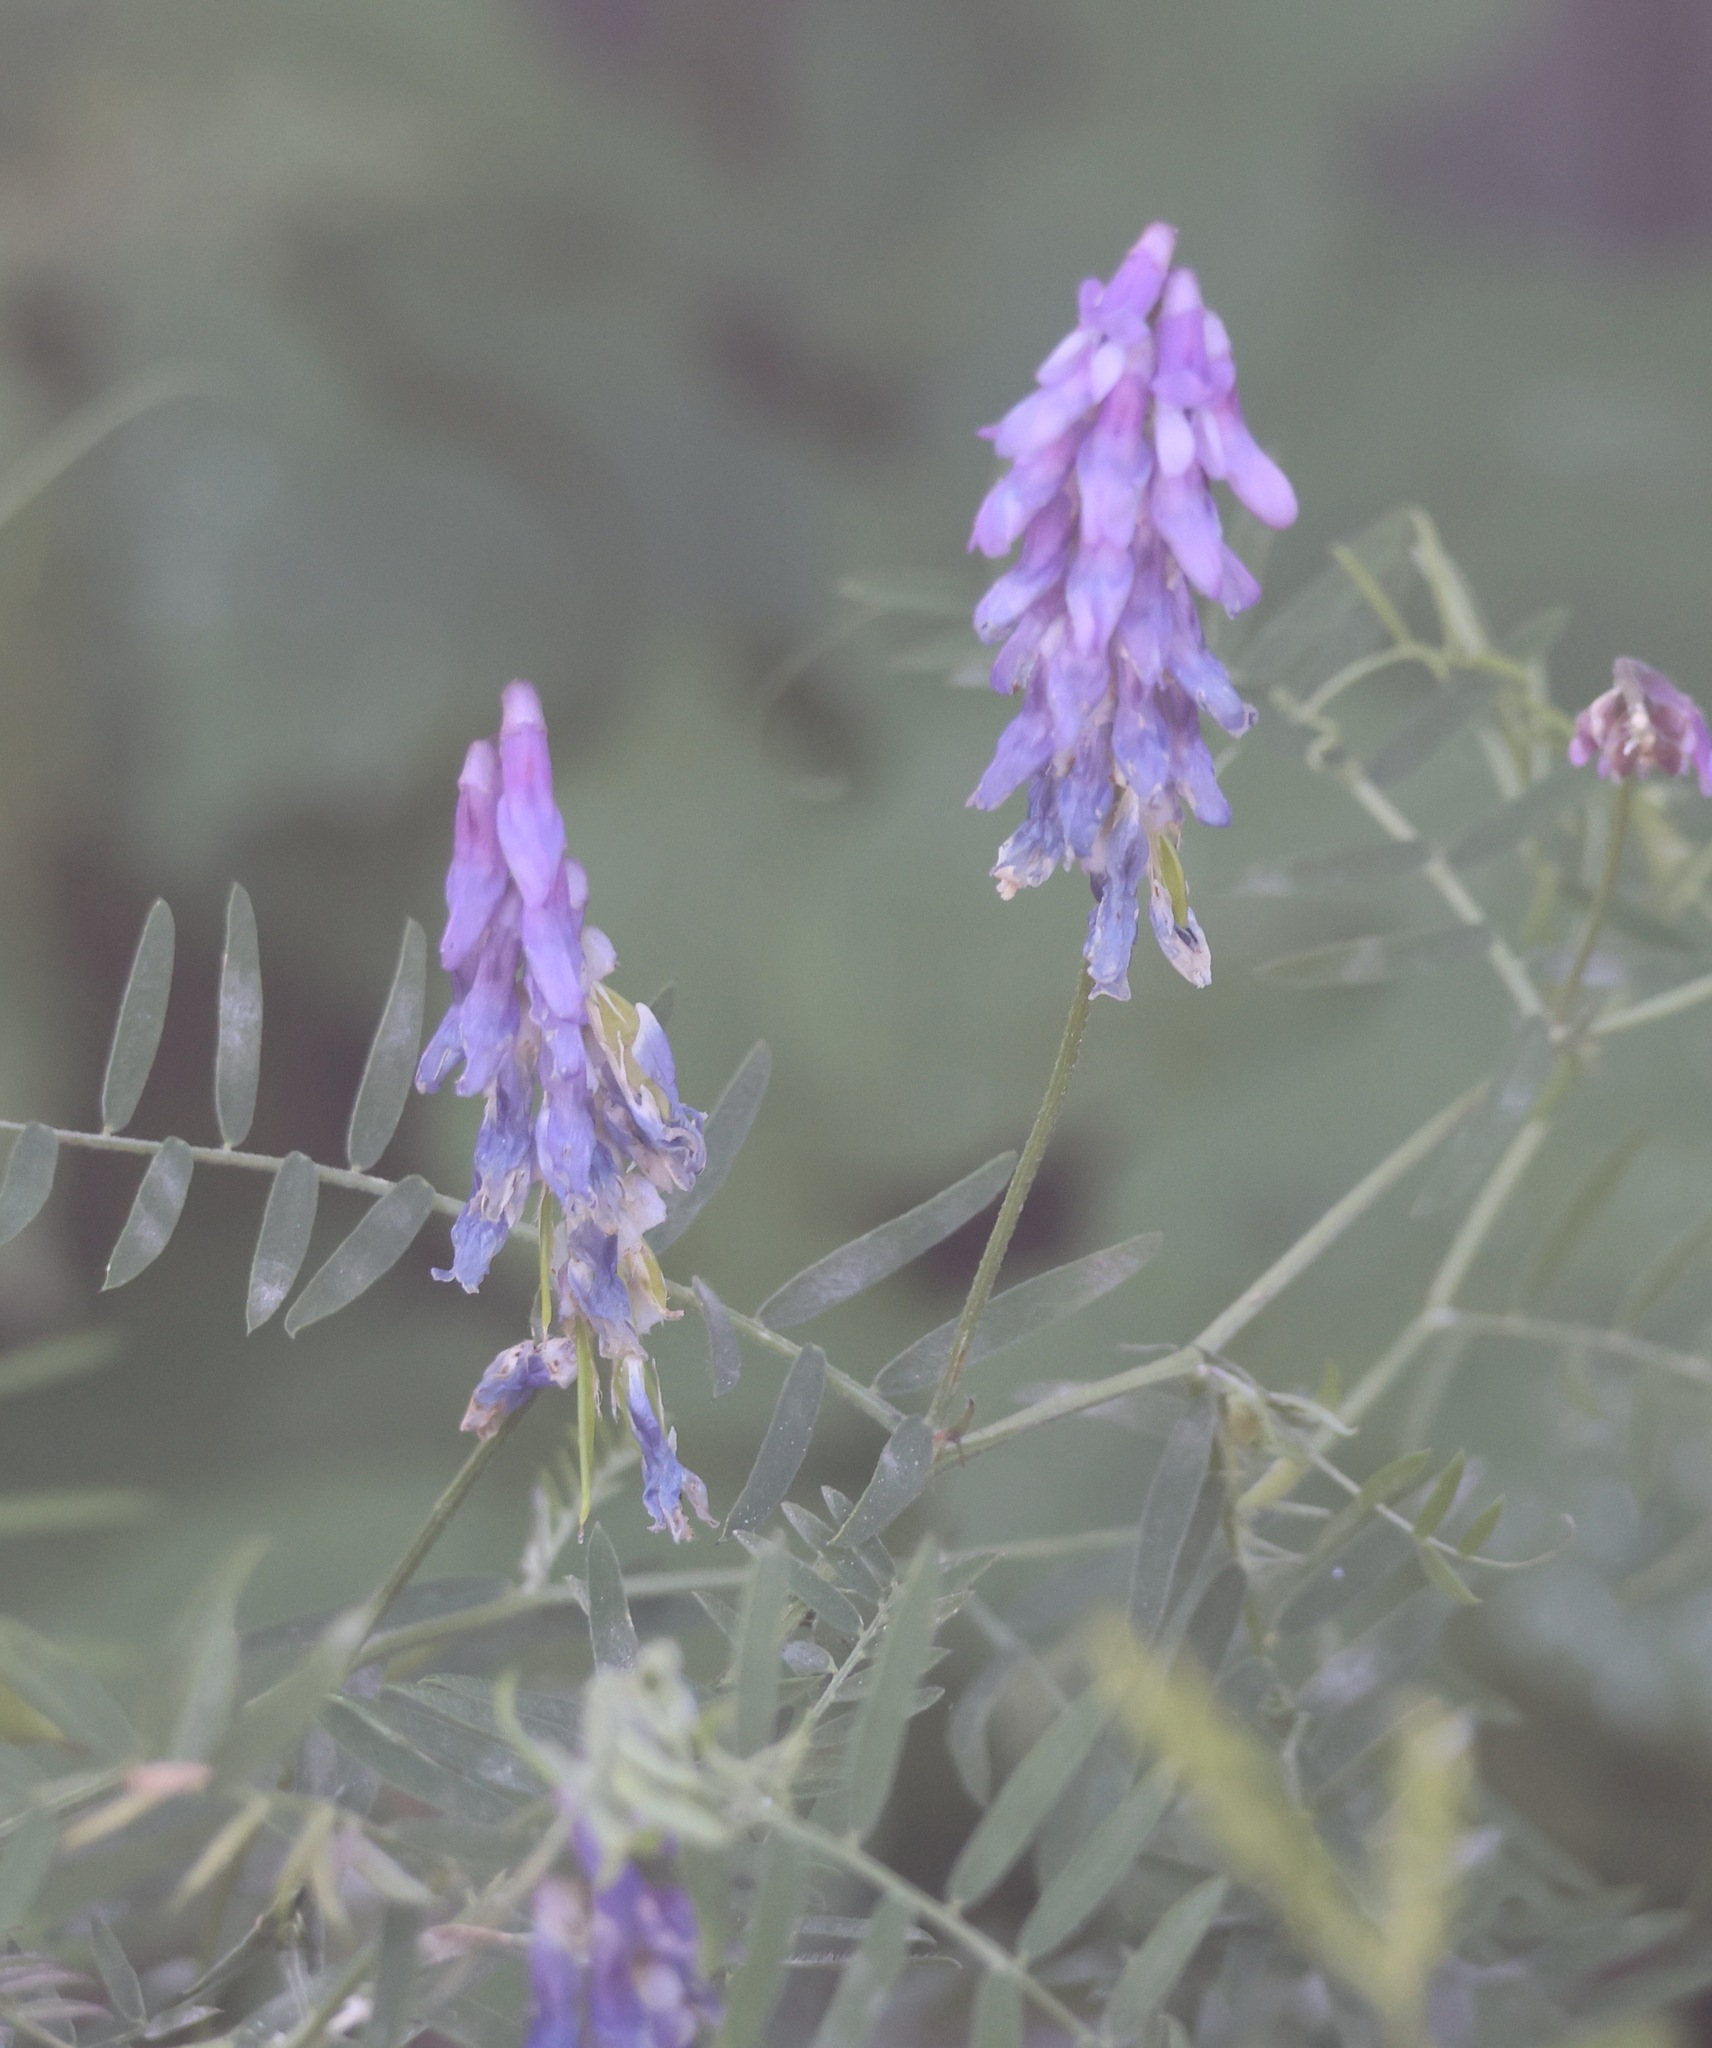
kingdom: Plantae
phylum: Tracheophyta
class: Magnoliopsida
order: Fabales
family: Fabaceae
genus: Vicia
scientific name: Vicia cracca
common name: Bird vetch
